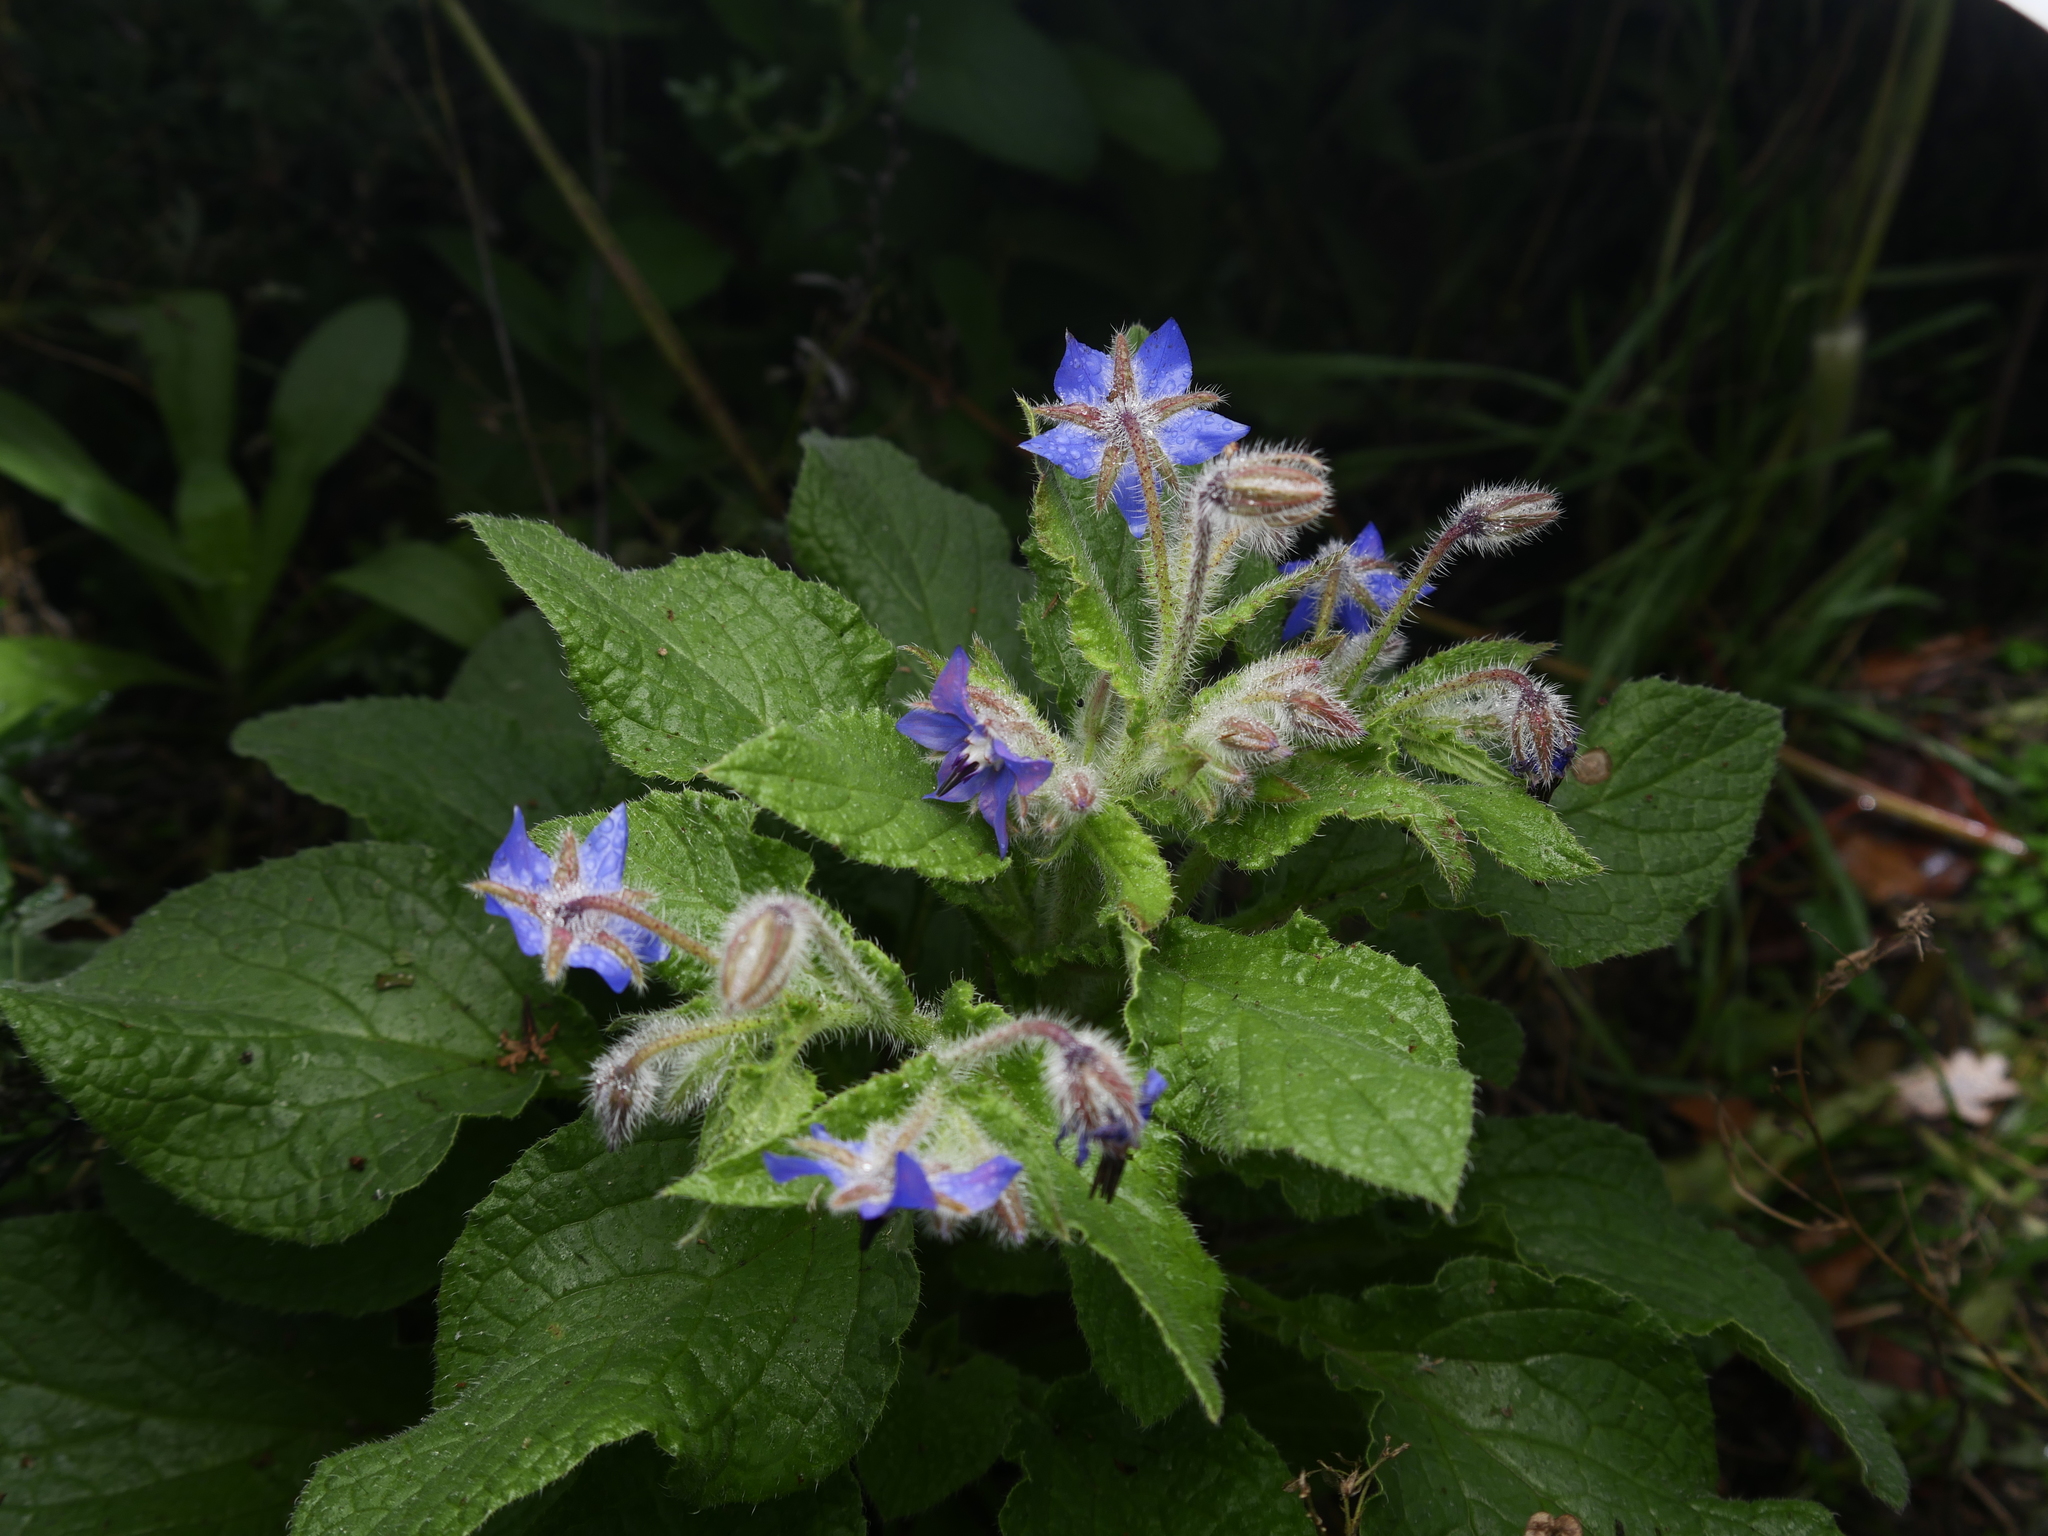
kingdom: Plantae
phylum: Tracheophyta
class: Magnoliopsida
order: Boraginales
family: Boraginaceae
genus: Borago
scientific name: Borago officinalis
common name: Borage
